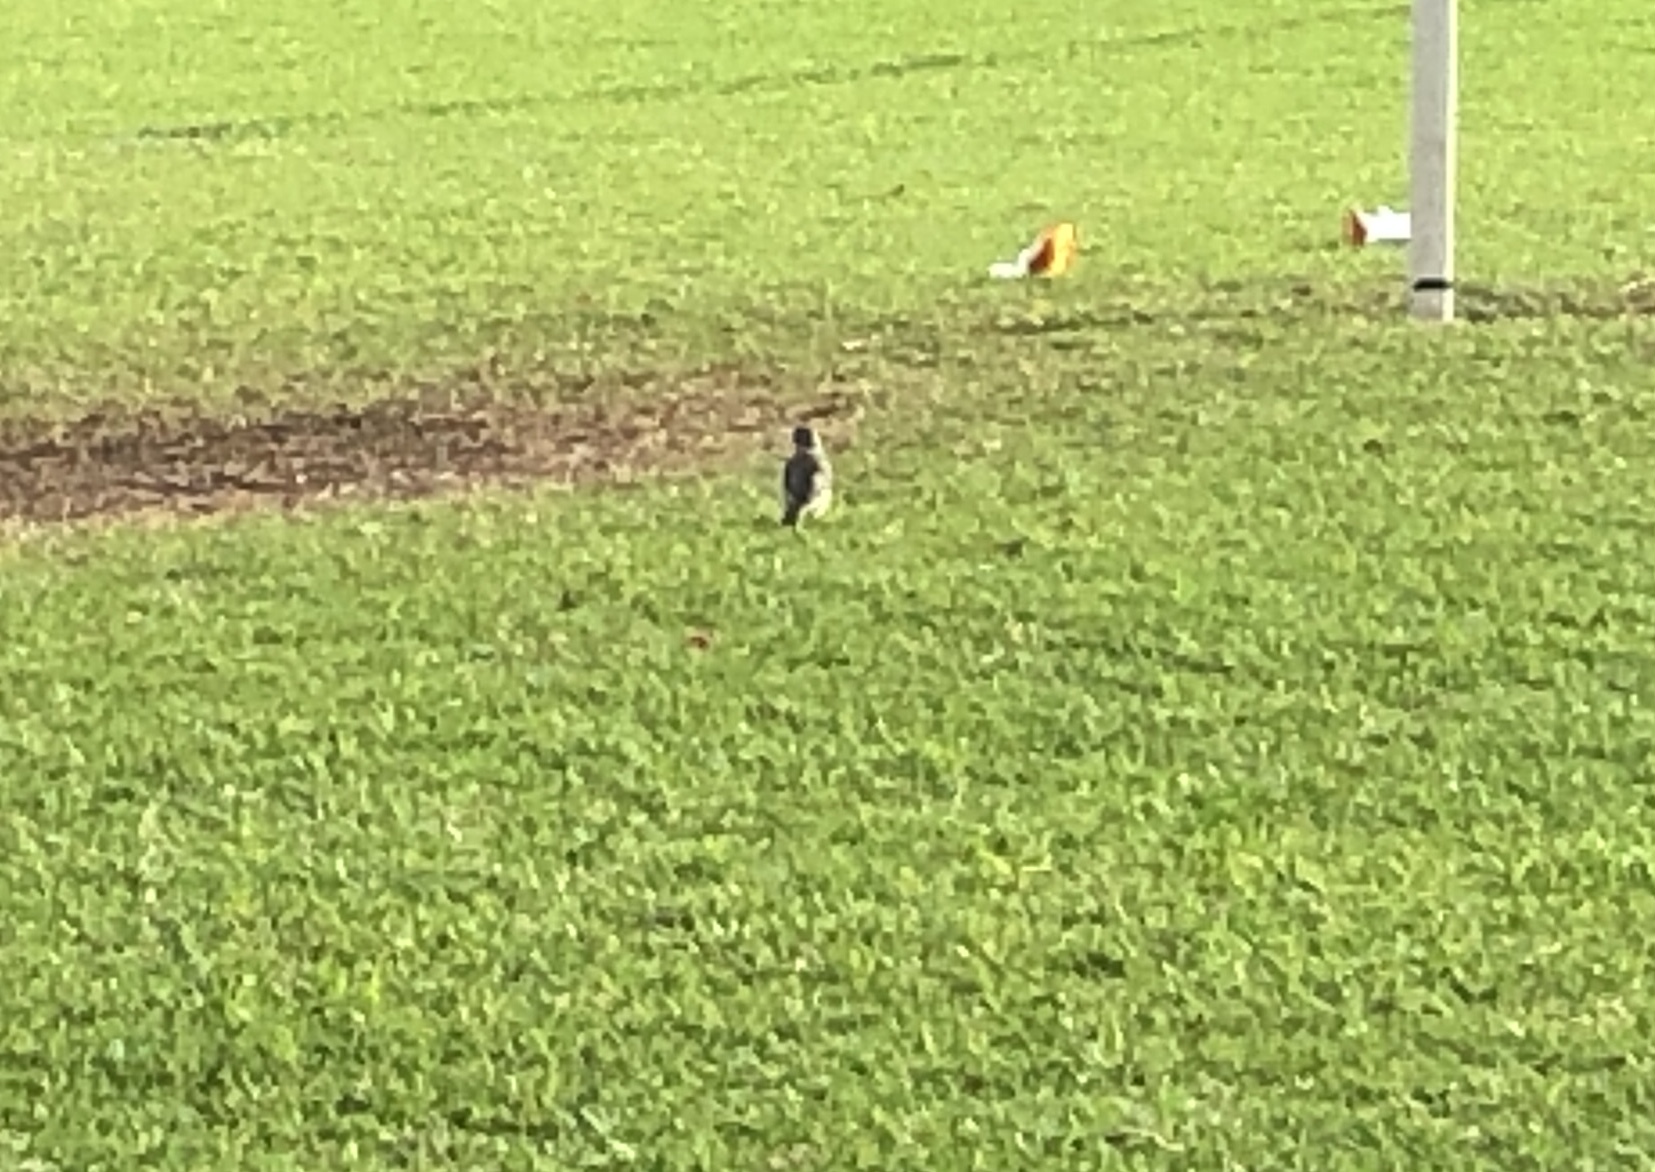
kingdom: Animalia
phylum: Chordata
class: Aves
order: Passeriformes
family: Meliphagidae
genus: Manorina
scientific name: Manorina melanocephala
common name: Noisy miner
